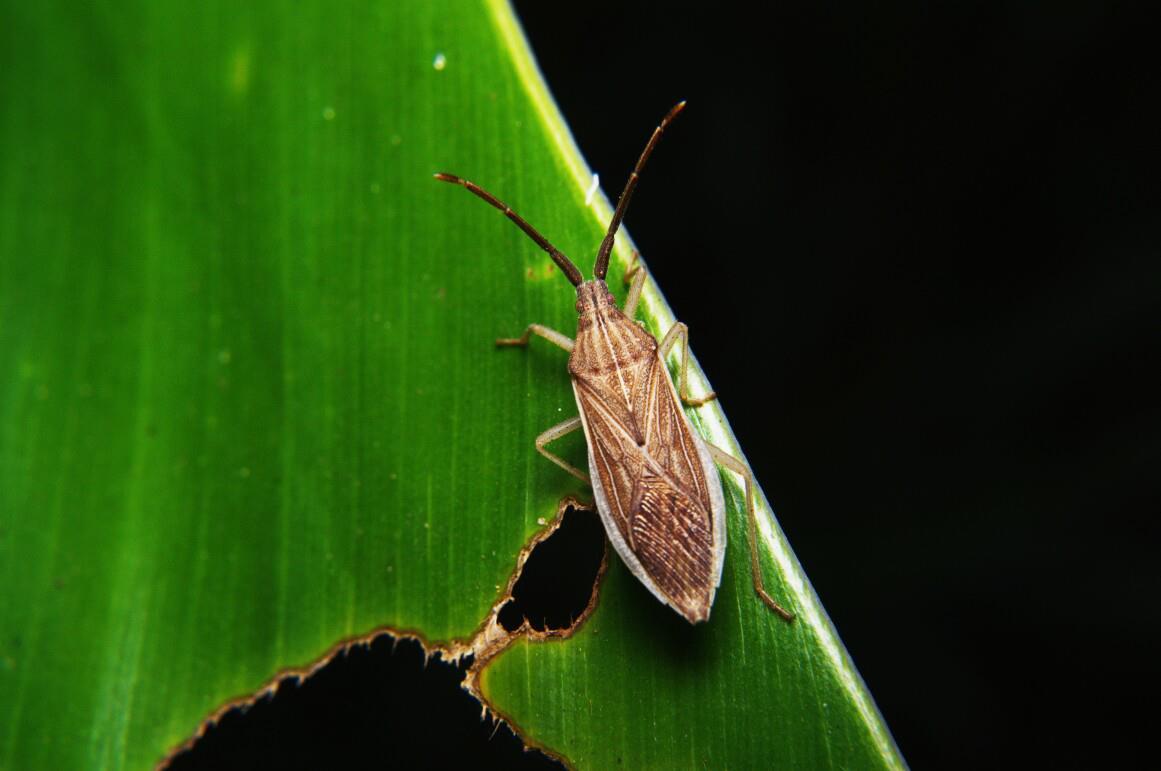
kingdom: Animalia
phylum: Arthropoda
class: Insecta
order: Hemiptera
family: Coreidae
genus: Homoeocerus
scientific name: Homoeocerus indus
